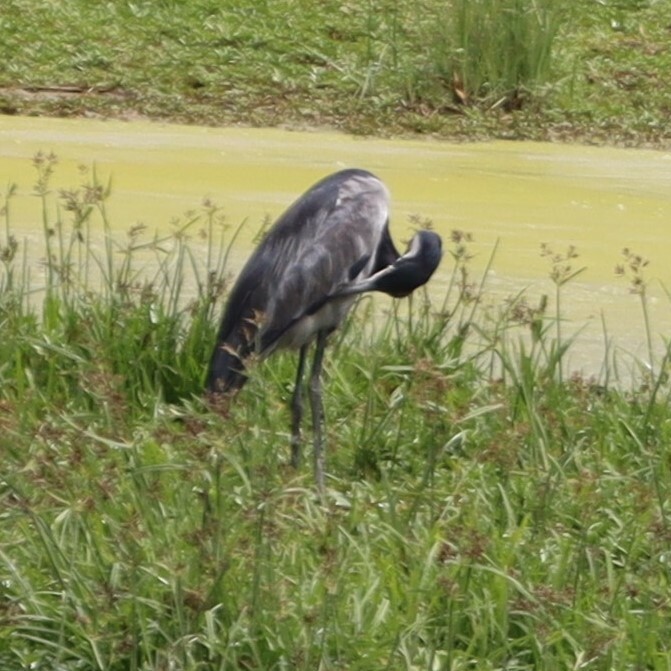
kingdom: Animalia
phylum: Chordata
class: Aves
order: Pelecaniformes
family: Ardeidae
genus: Ardea
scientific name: Ardea melanocephala
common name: Black-headed heron
